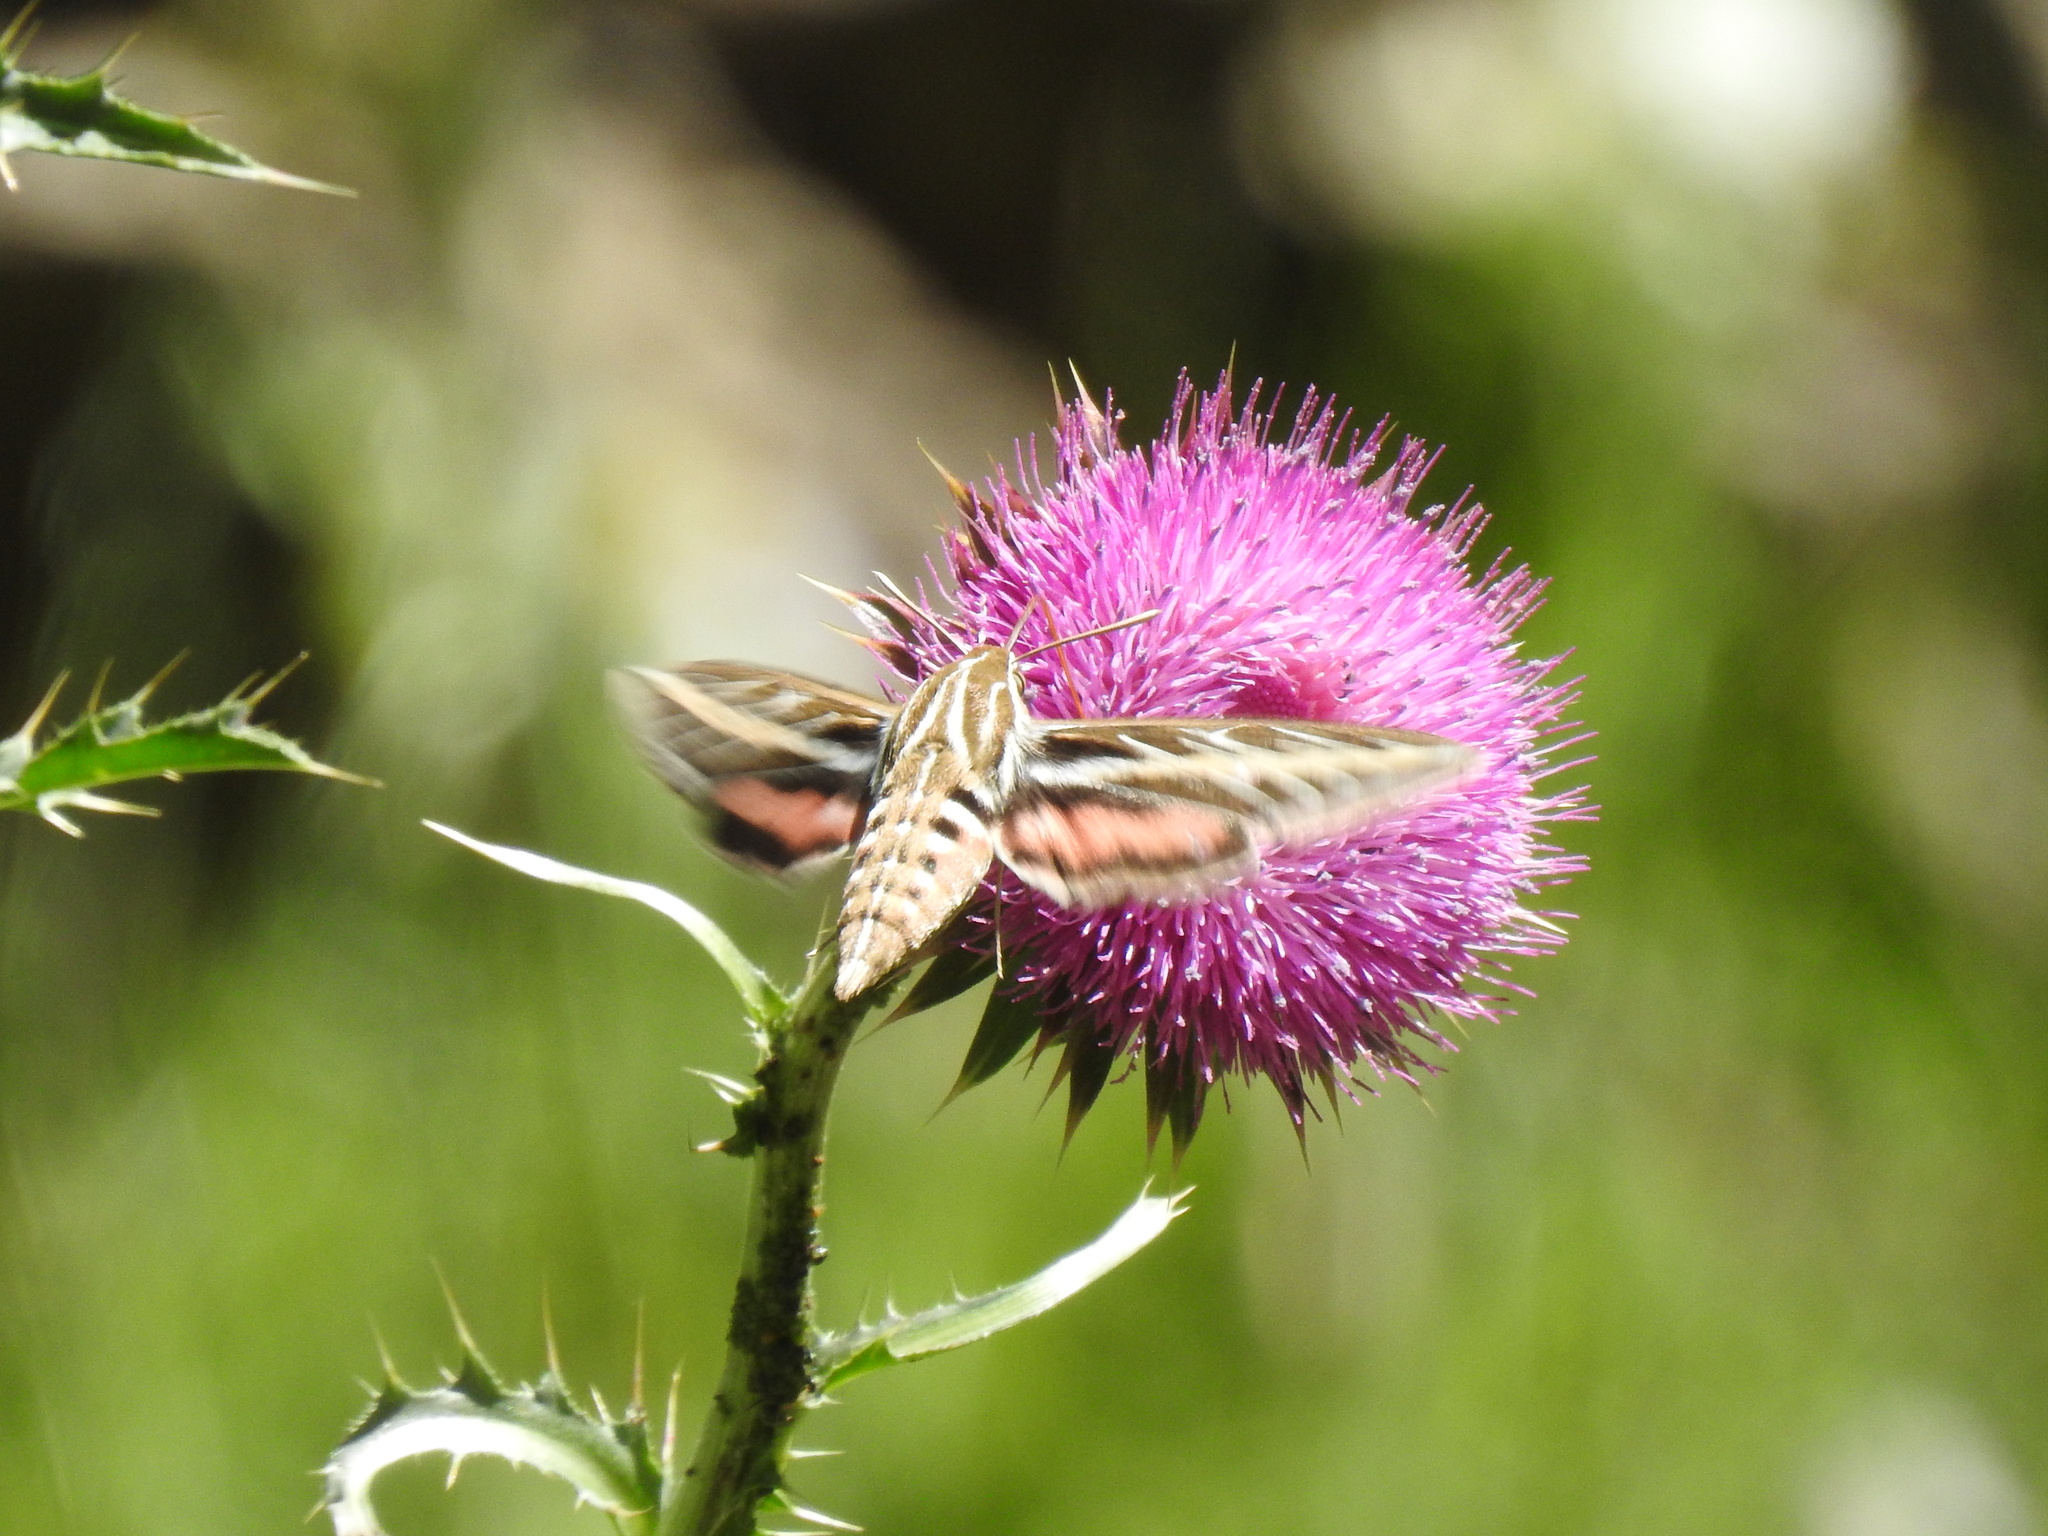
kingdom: Animalia
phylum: Arthropoda
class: Insecta
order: Lepidoptera
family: Sphingidae
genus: Hyles
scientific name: Hyles lineata
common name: White-lined sphinx
